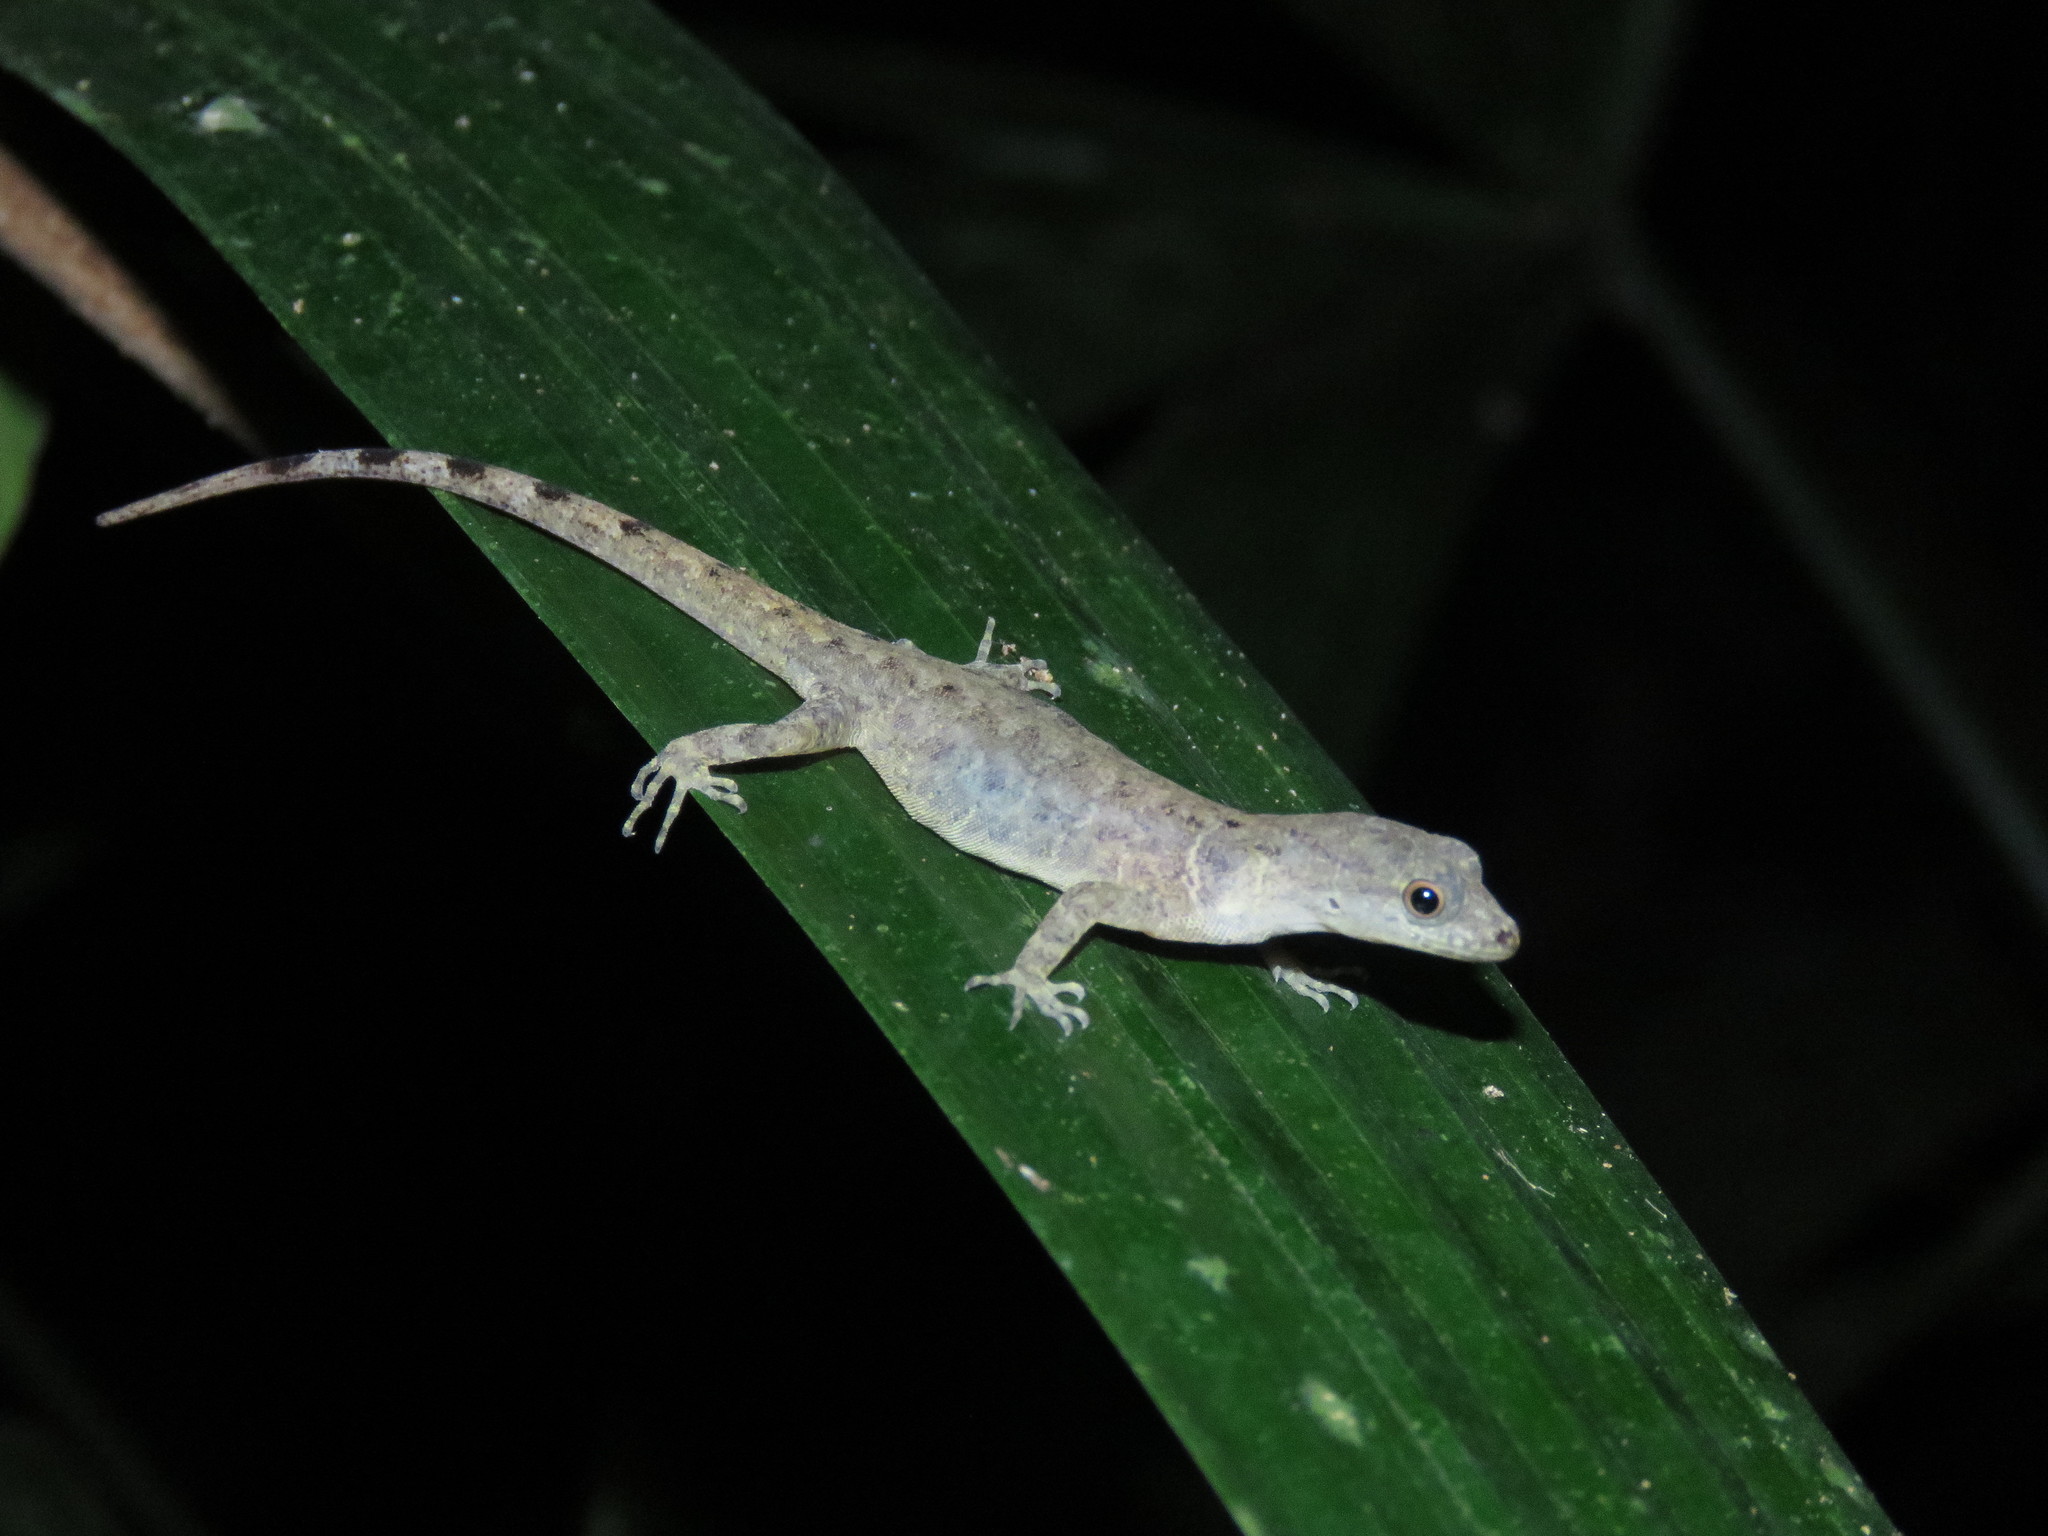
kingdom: Animalia
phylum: Chordata
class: Squamata
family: Sphaerodactylidae
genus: Gonatodes
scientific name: Gonatodes humeralis
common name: South american clawed gecko
